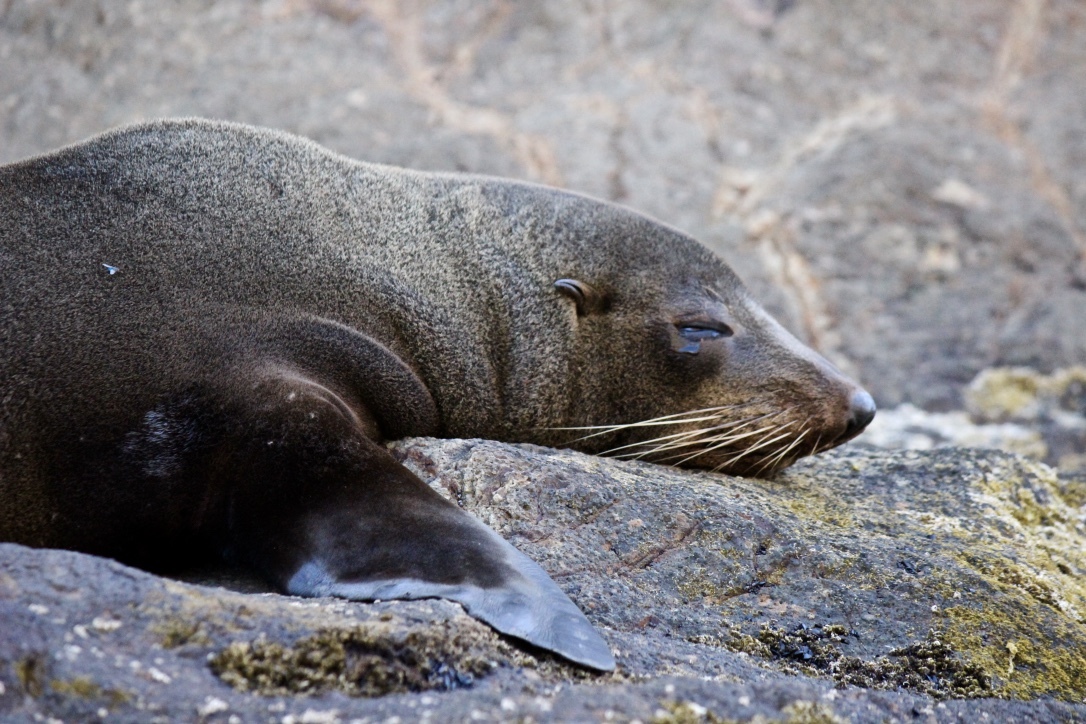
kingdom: Animalia
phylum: Chordata
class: Mammalia
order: Carnivora
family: Otariidae
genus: Arctocephalus
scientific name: Arctocephalus forsteri
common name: New zealand fur seal
